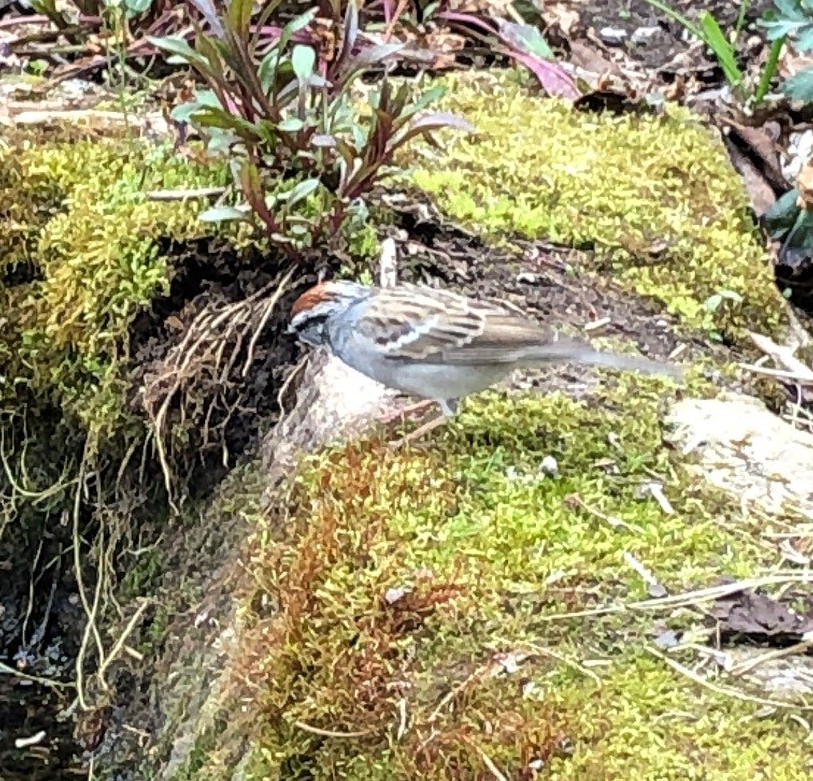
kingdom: Animalia
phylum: Chordata
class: Aves
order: Passeriformes
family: Passerellidae
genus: Spizella
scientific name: Spizella passerina
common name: Chipping sparrow
